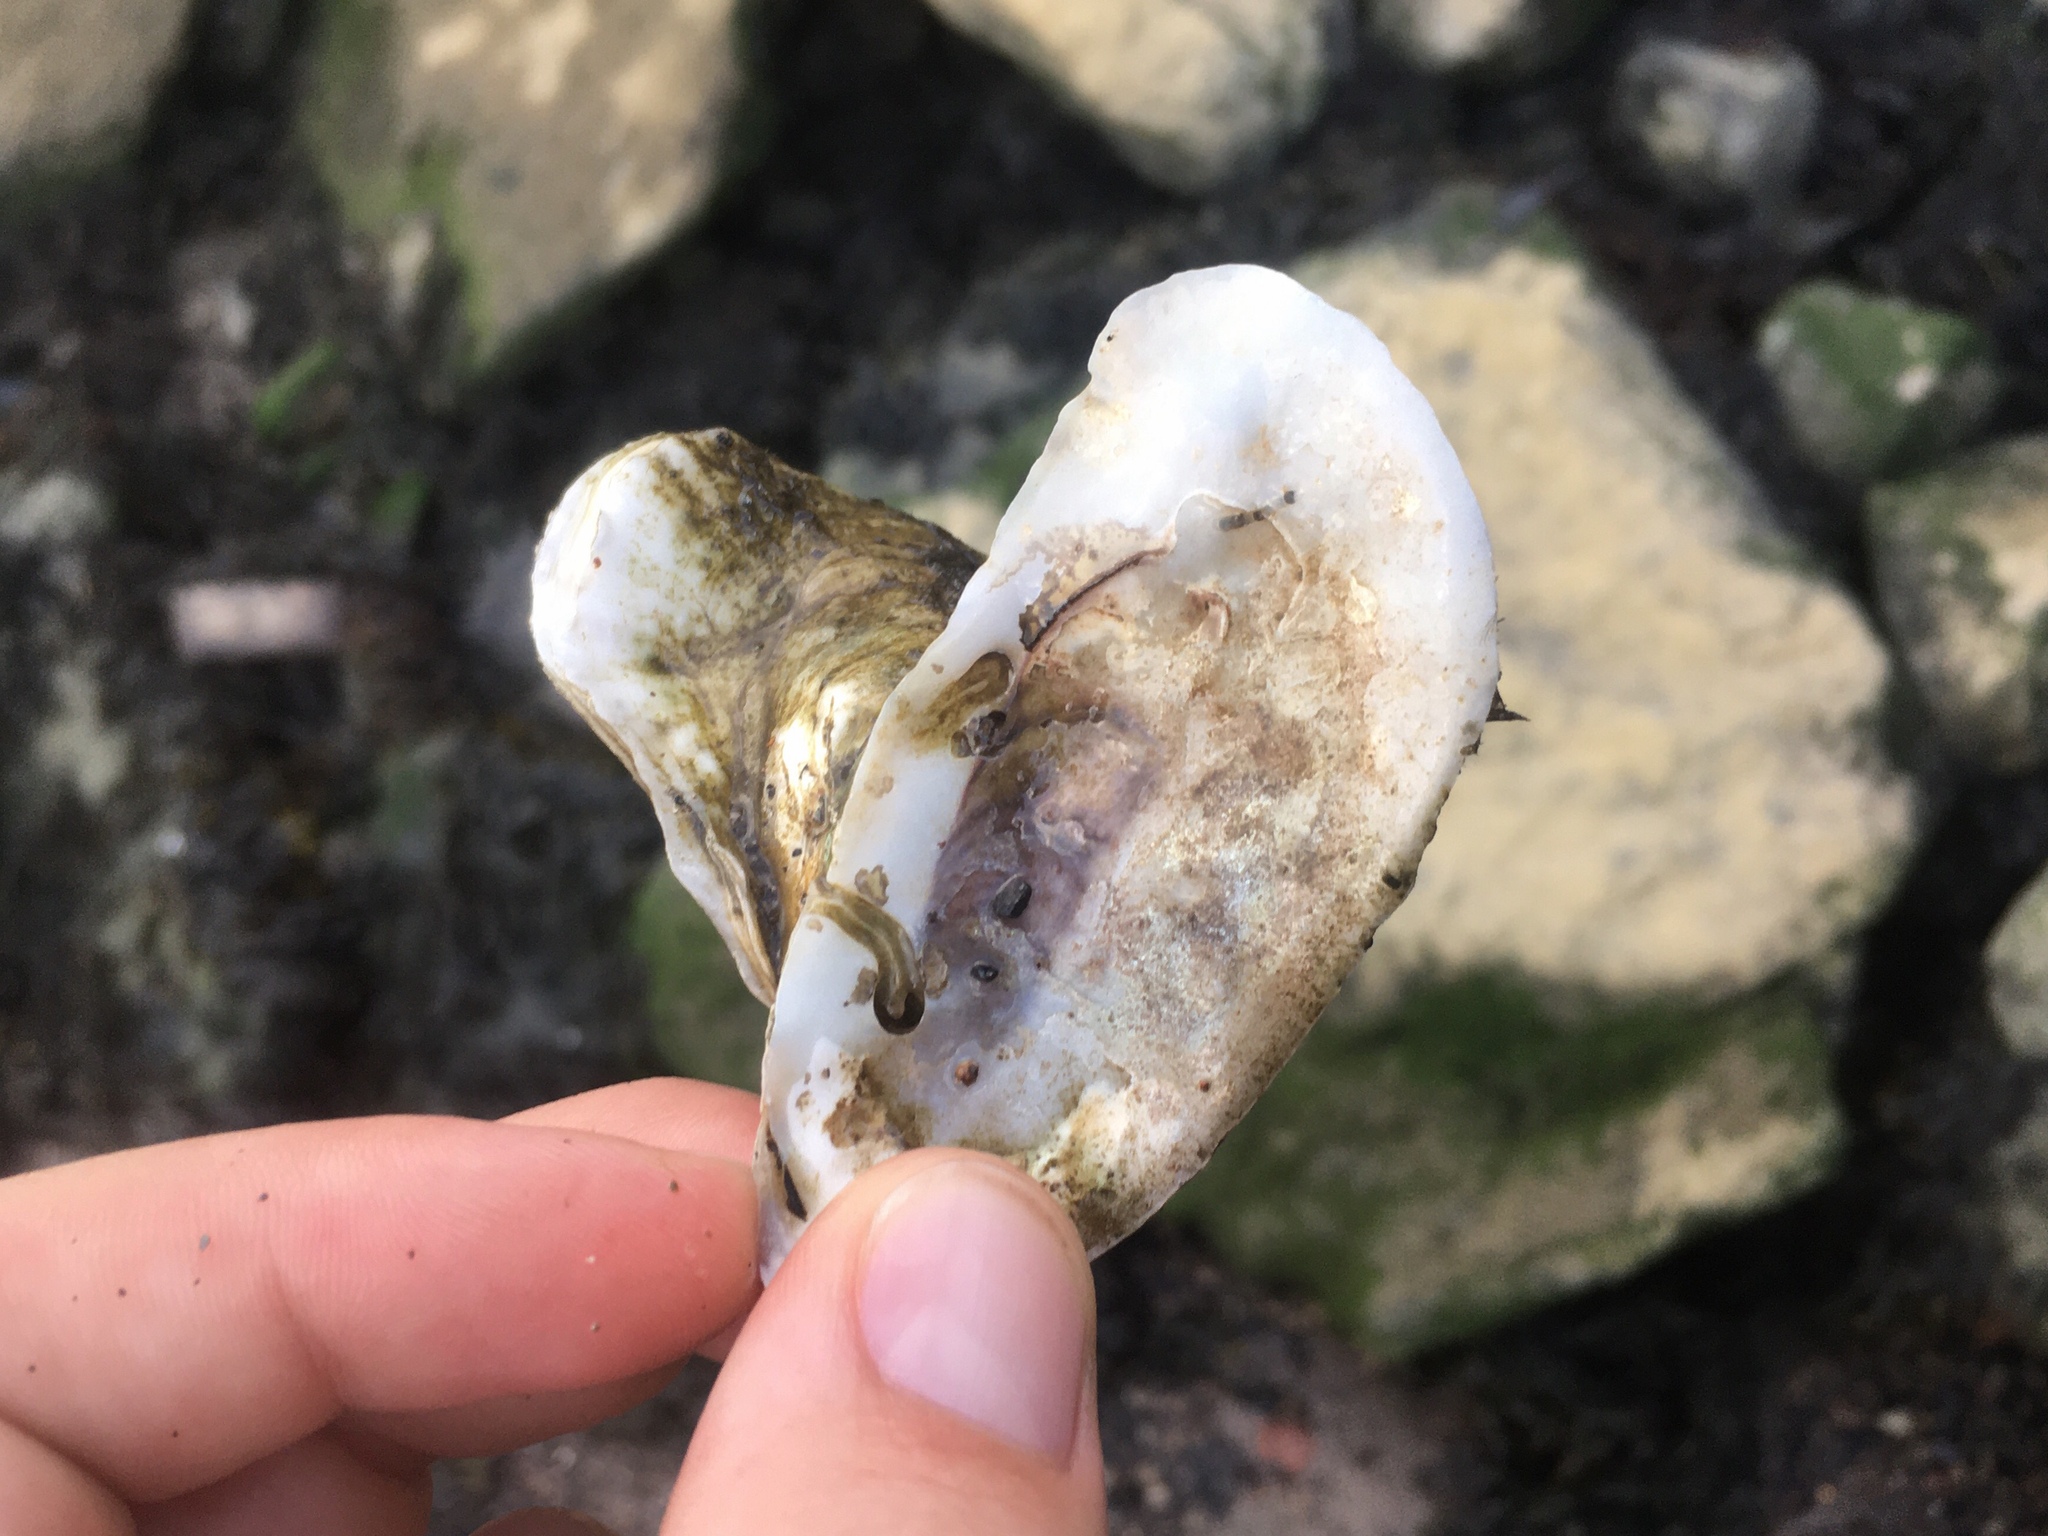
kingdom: Animalia
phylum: Mollusca
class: Bivalvia
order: Ostreida
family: Ostreidae
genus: Crassostrea
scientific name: Crassostrea virginica
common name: American oyster
